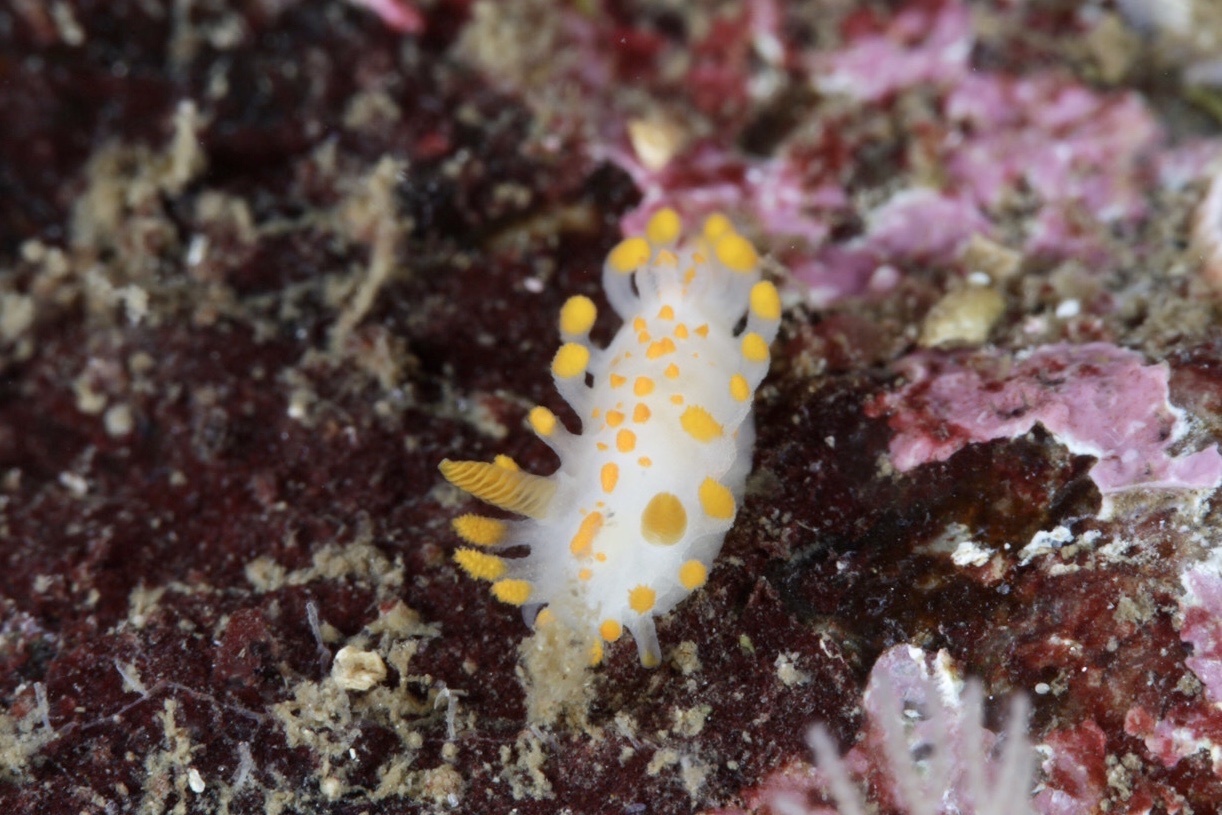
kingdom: Animalia
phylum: Mollusca
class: Gastropoda
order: Nudibranchia
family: Polyceridae
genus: Limacia
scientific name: Limacia clavigera
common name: Orange-clubbed sea slug
